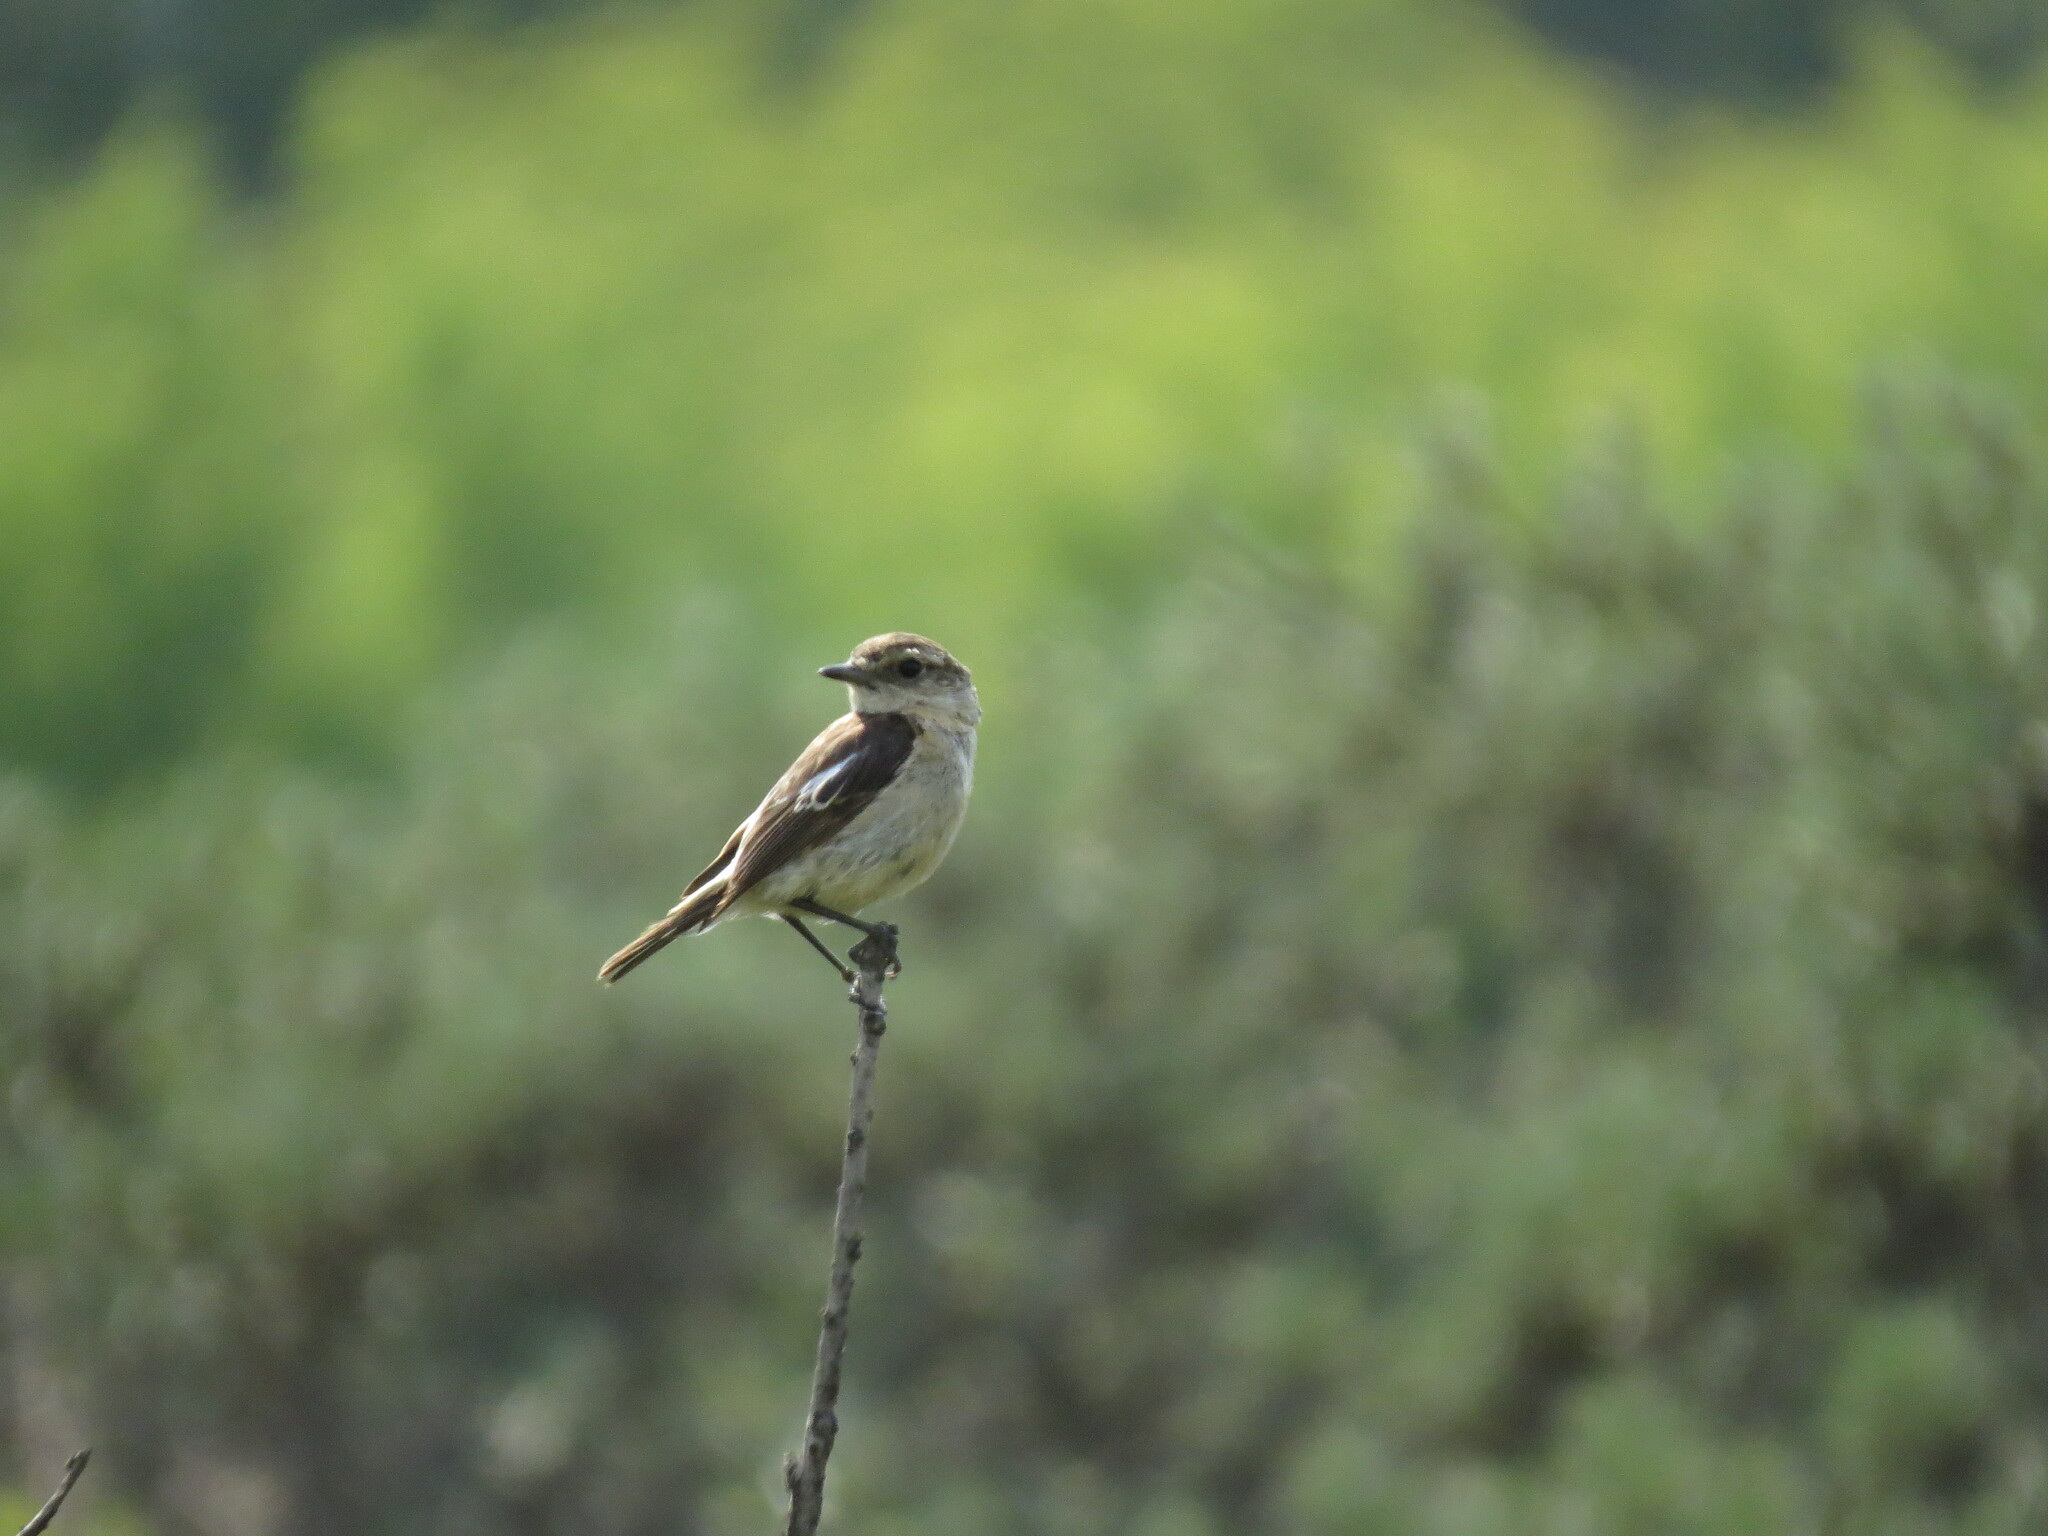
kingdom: Animalia
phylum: Chordata
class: Aves
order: Passeriformes
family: Muscicapidae
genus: Saxicola
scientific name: Saxicola maurus
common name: Siberian stonechat
